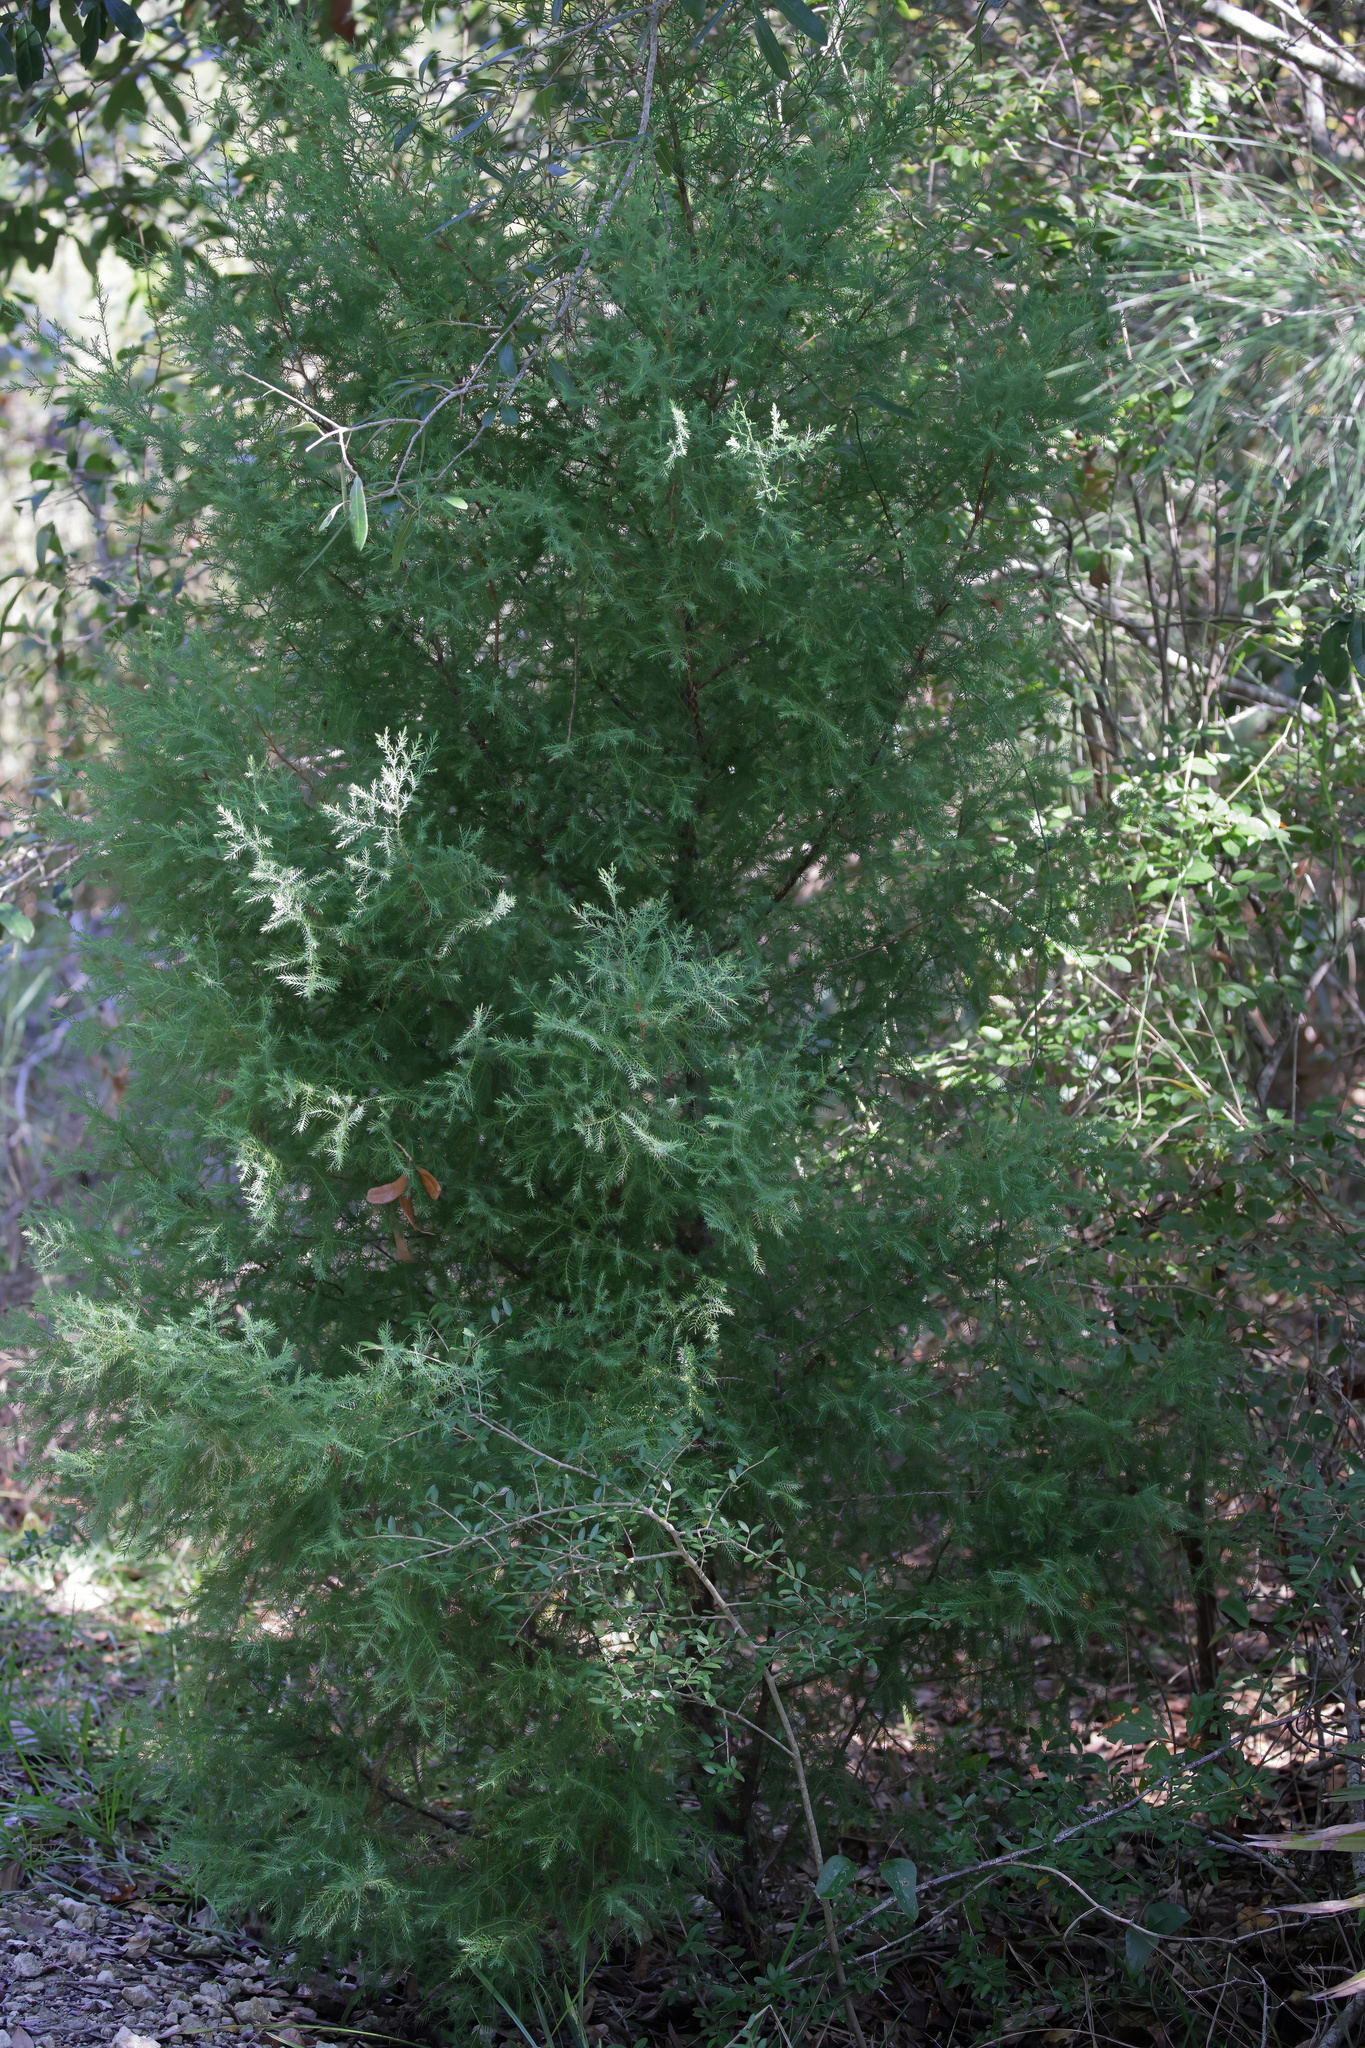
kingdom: Plantae
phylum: Tracheophyta
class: Pinopsida
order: Pinales
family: Cupressaceae
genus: Juniperus
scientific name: Juniperus virginiana
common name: Red juniper
